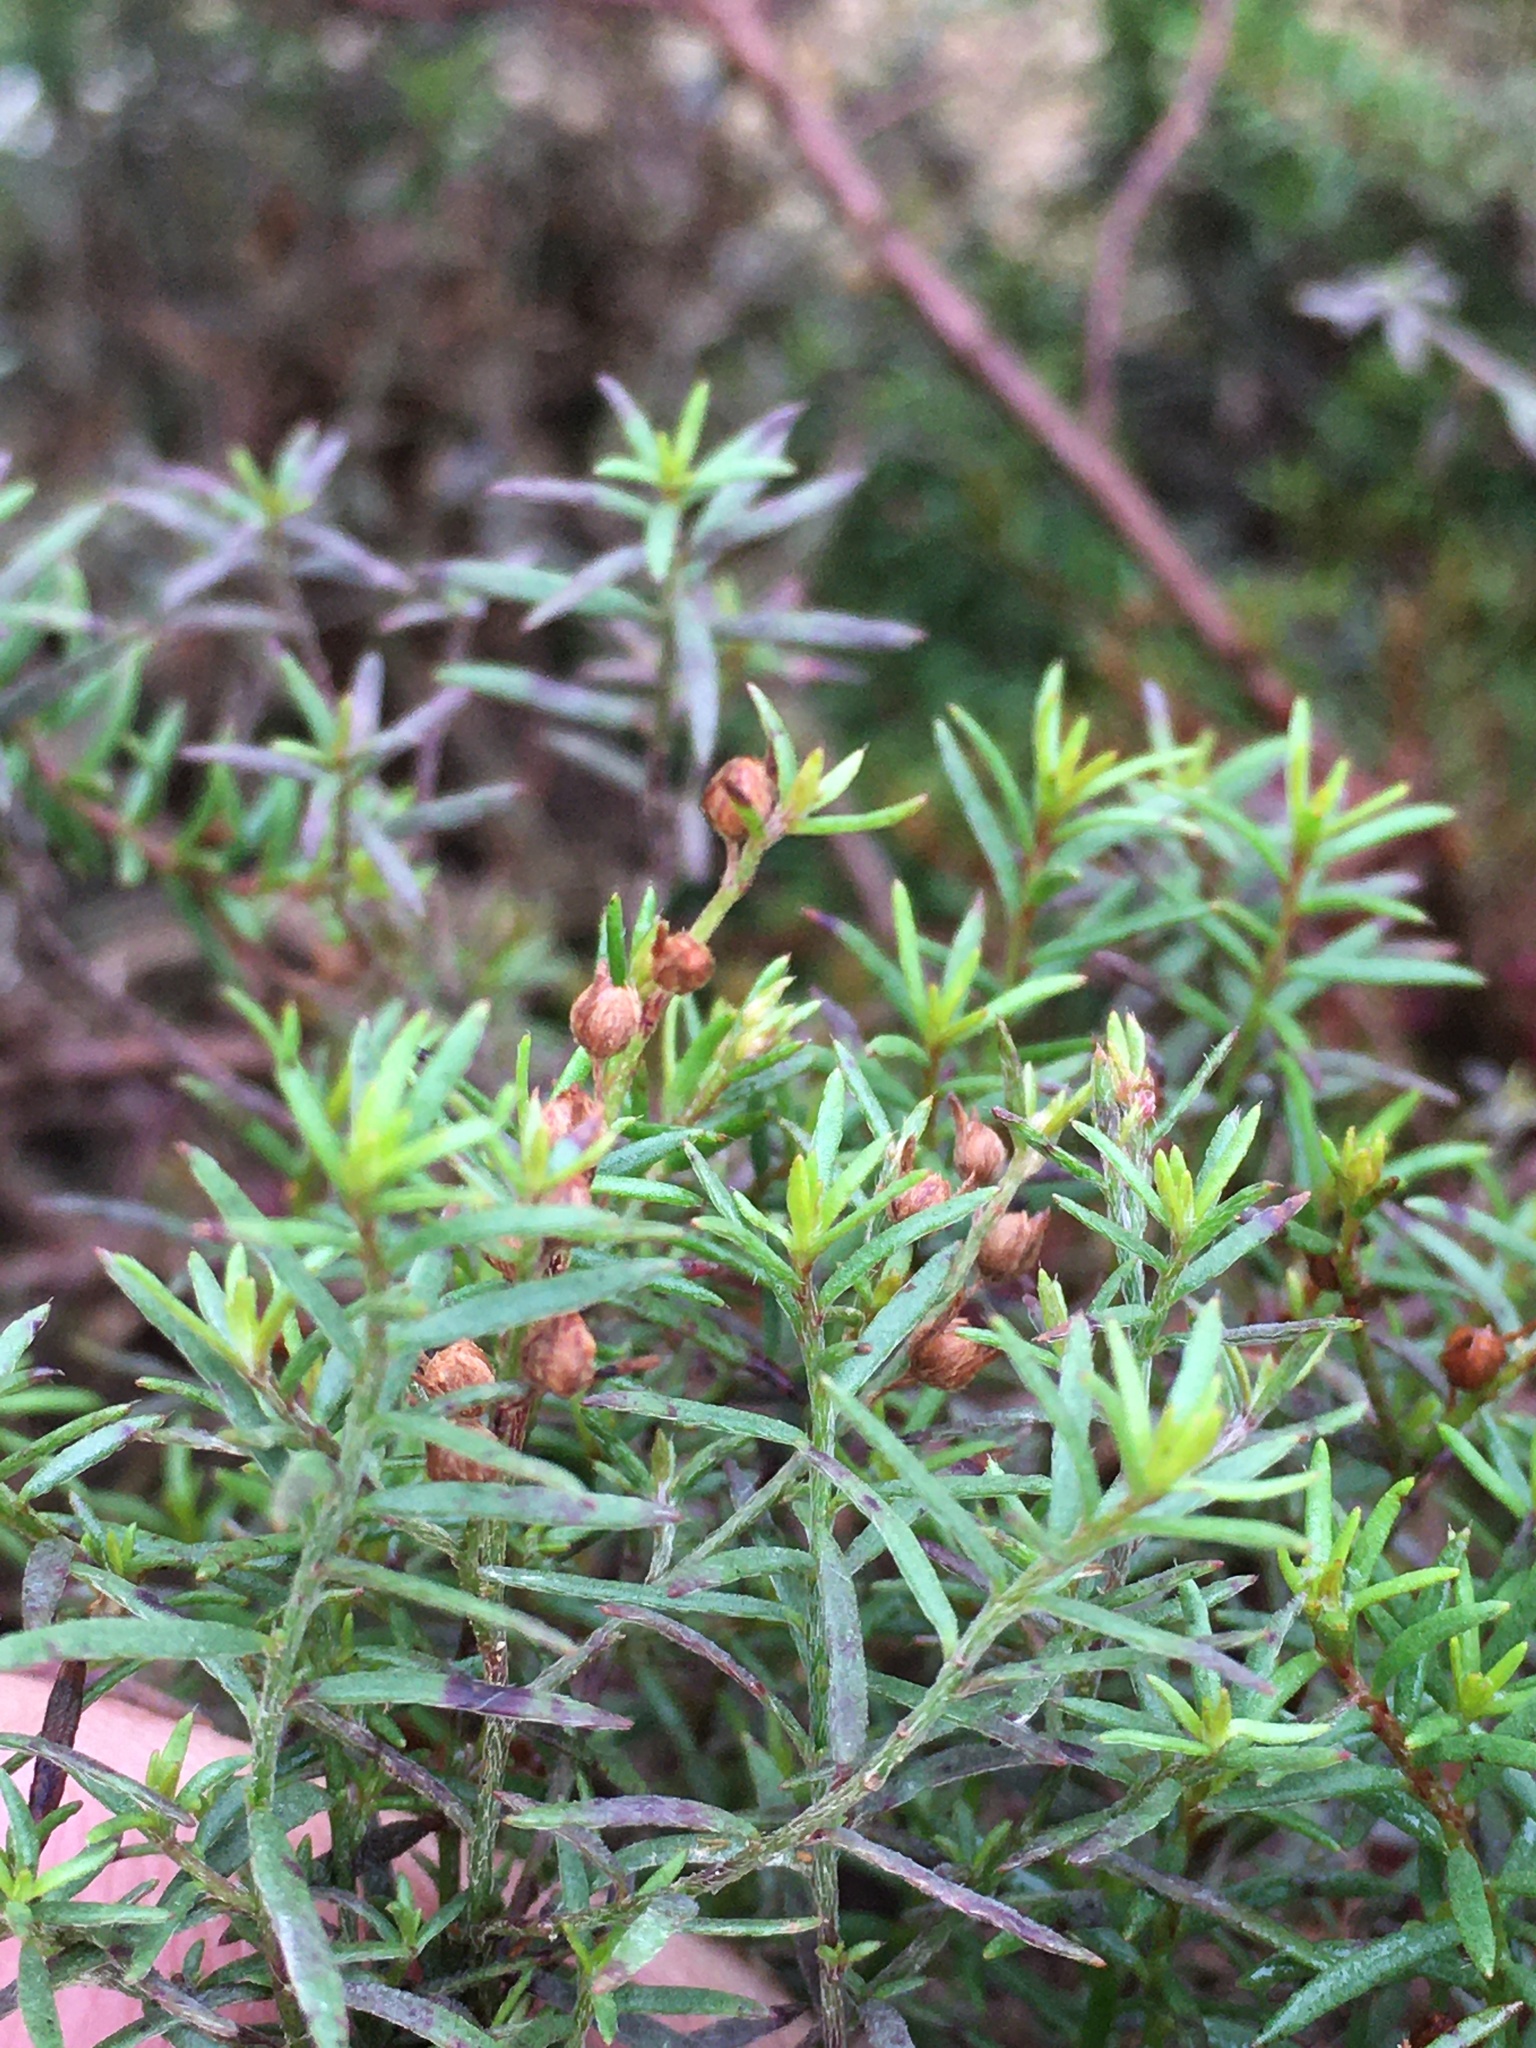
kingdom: Plantae
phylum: Tracheophyta
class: Magnoliopsida
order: Malvales
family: Cistaceae
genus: Lechea
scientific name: Lechea tenuifolia
